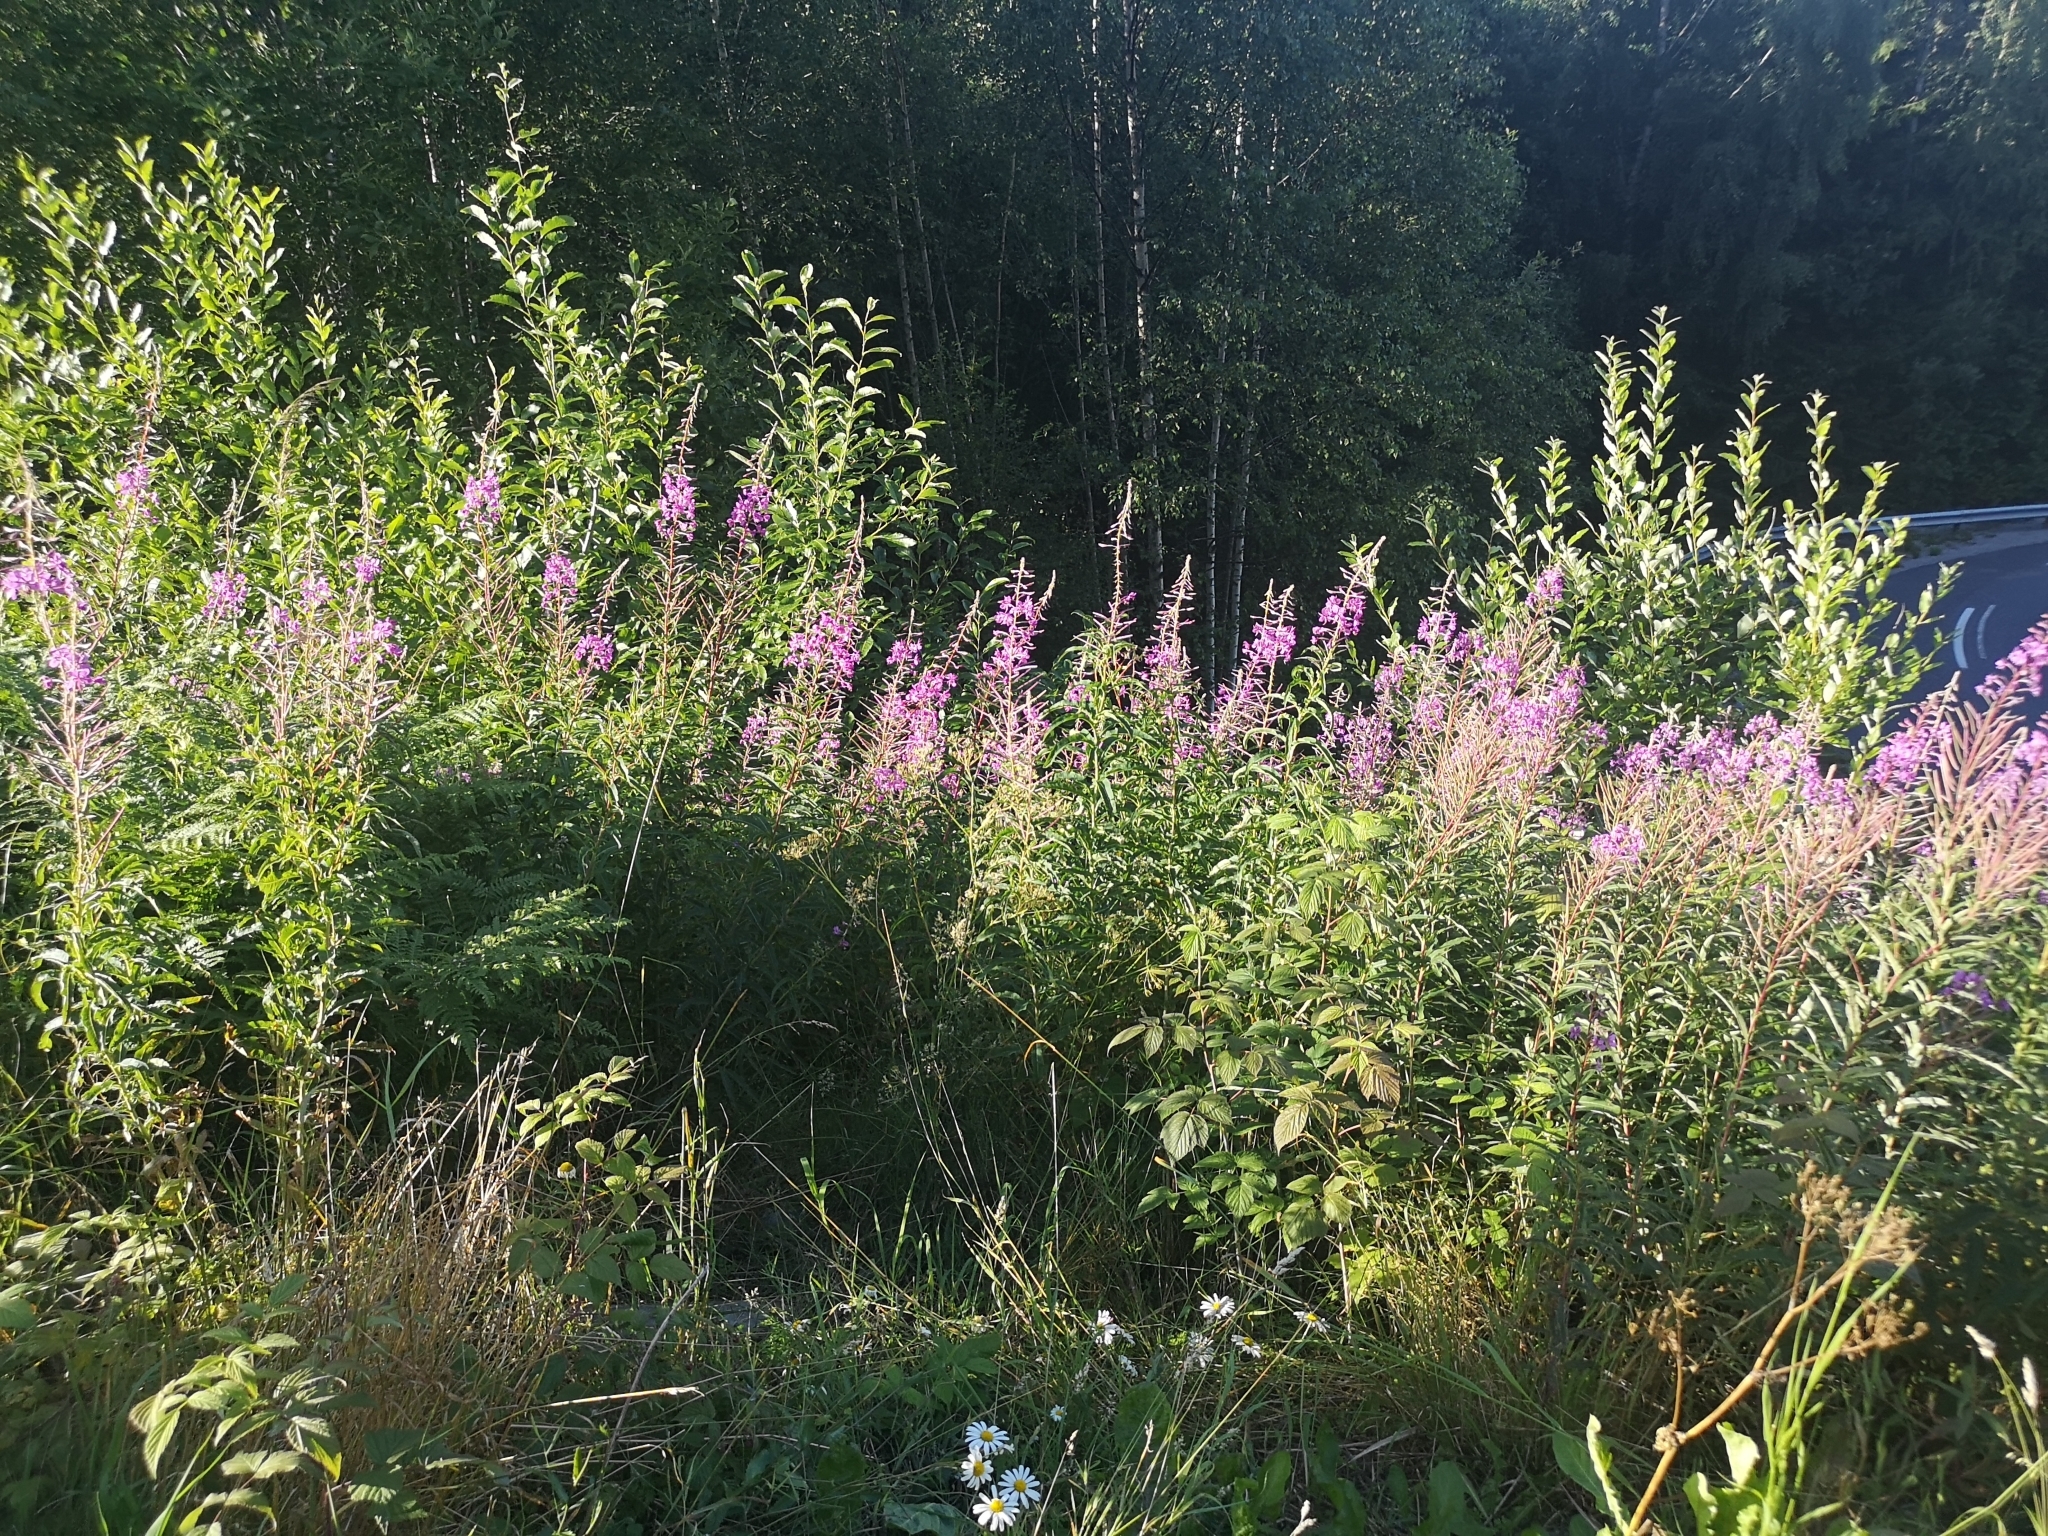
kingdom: Plantae
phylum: Tracheophyta
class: Magnoliopsida
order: Myrtales
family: Onagraceae
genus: Chamaenerion
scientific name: Chamaenerion angustifolium
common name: Fireweed
